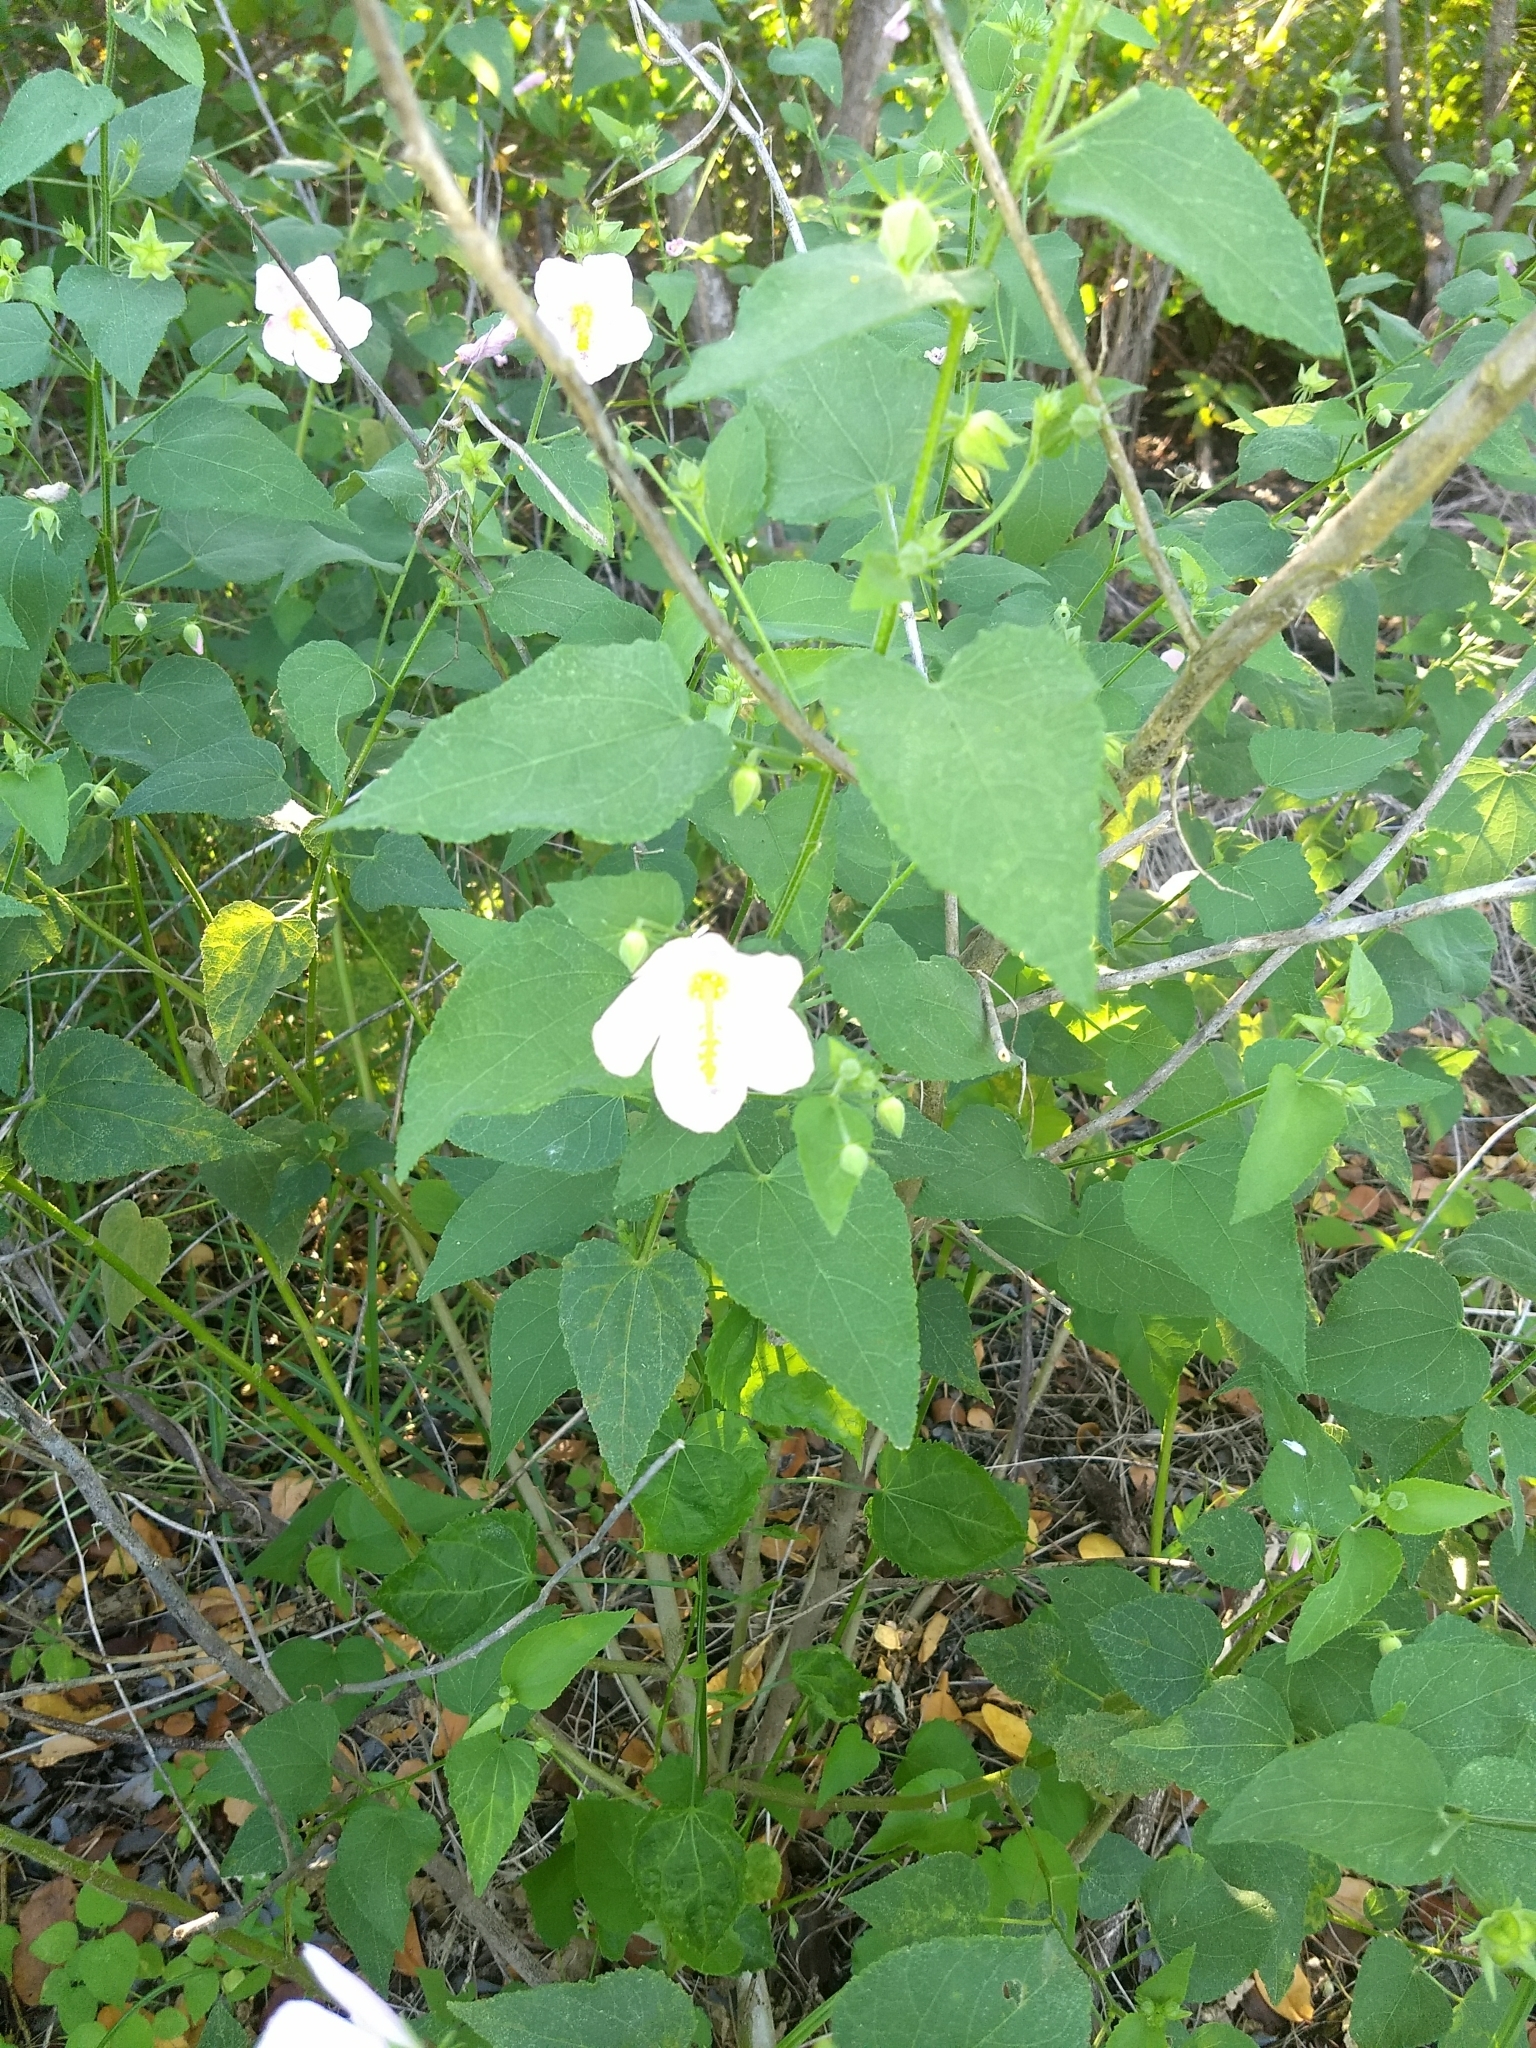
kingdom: Plantae
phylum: Tracheophyta
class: Magnoliopsida
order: Malvales
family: Malvaceae
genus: Kosteletzkya
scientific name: Kosteletzkya pentacarpos
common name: Virginia saltmarsh mallow
